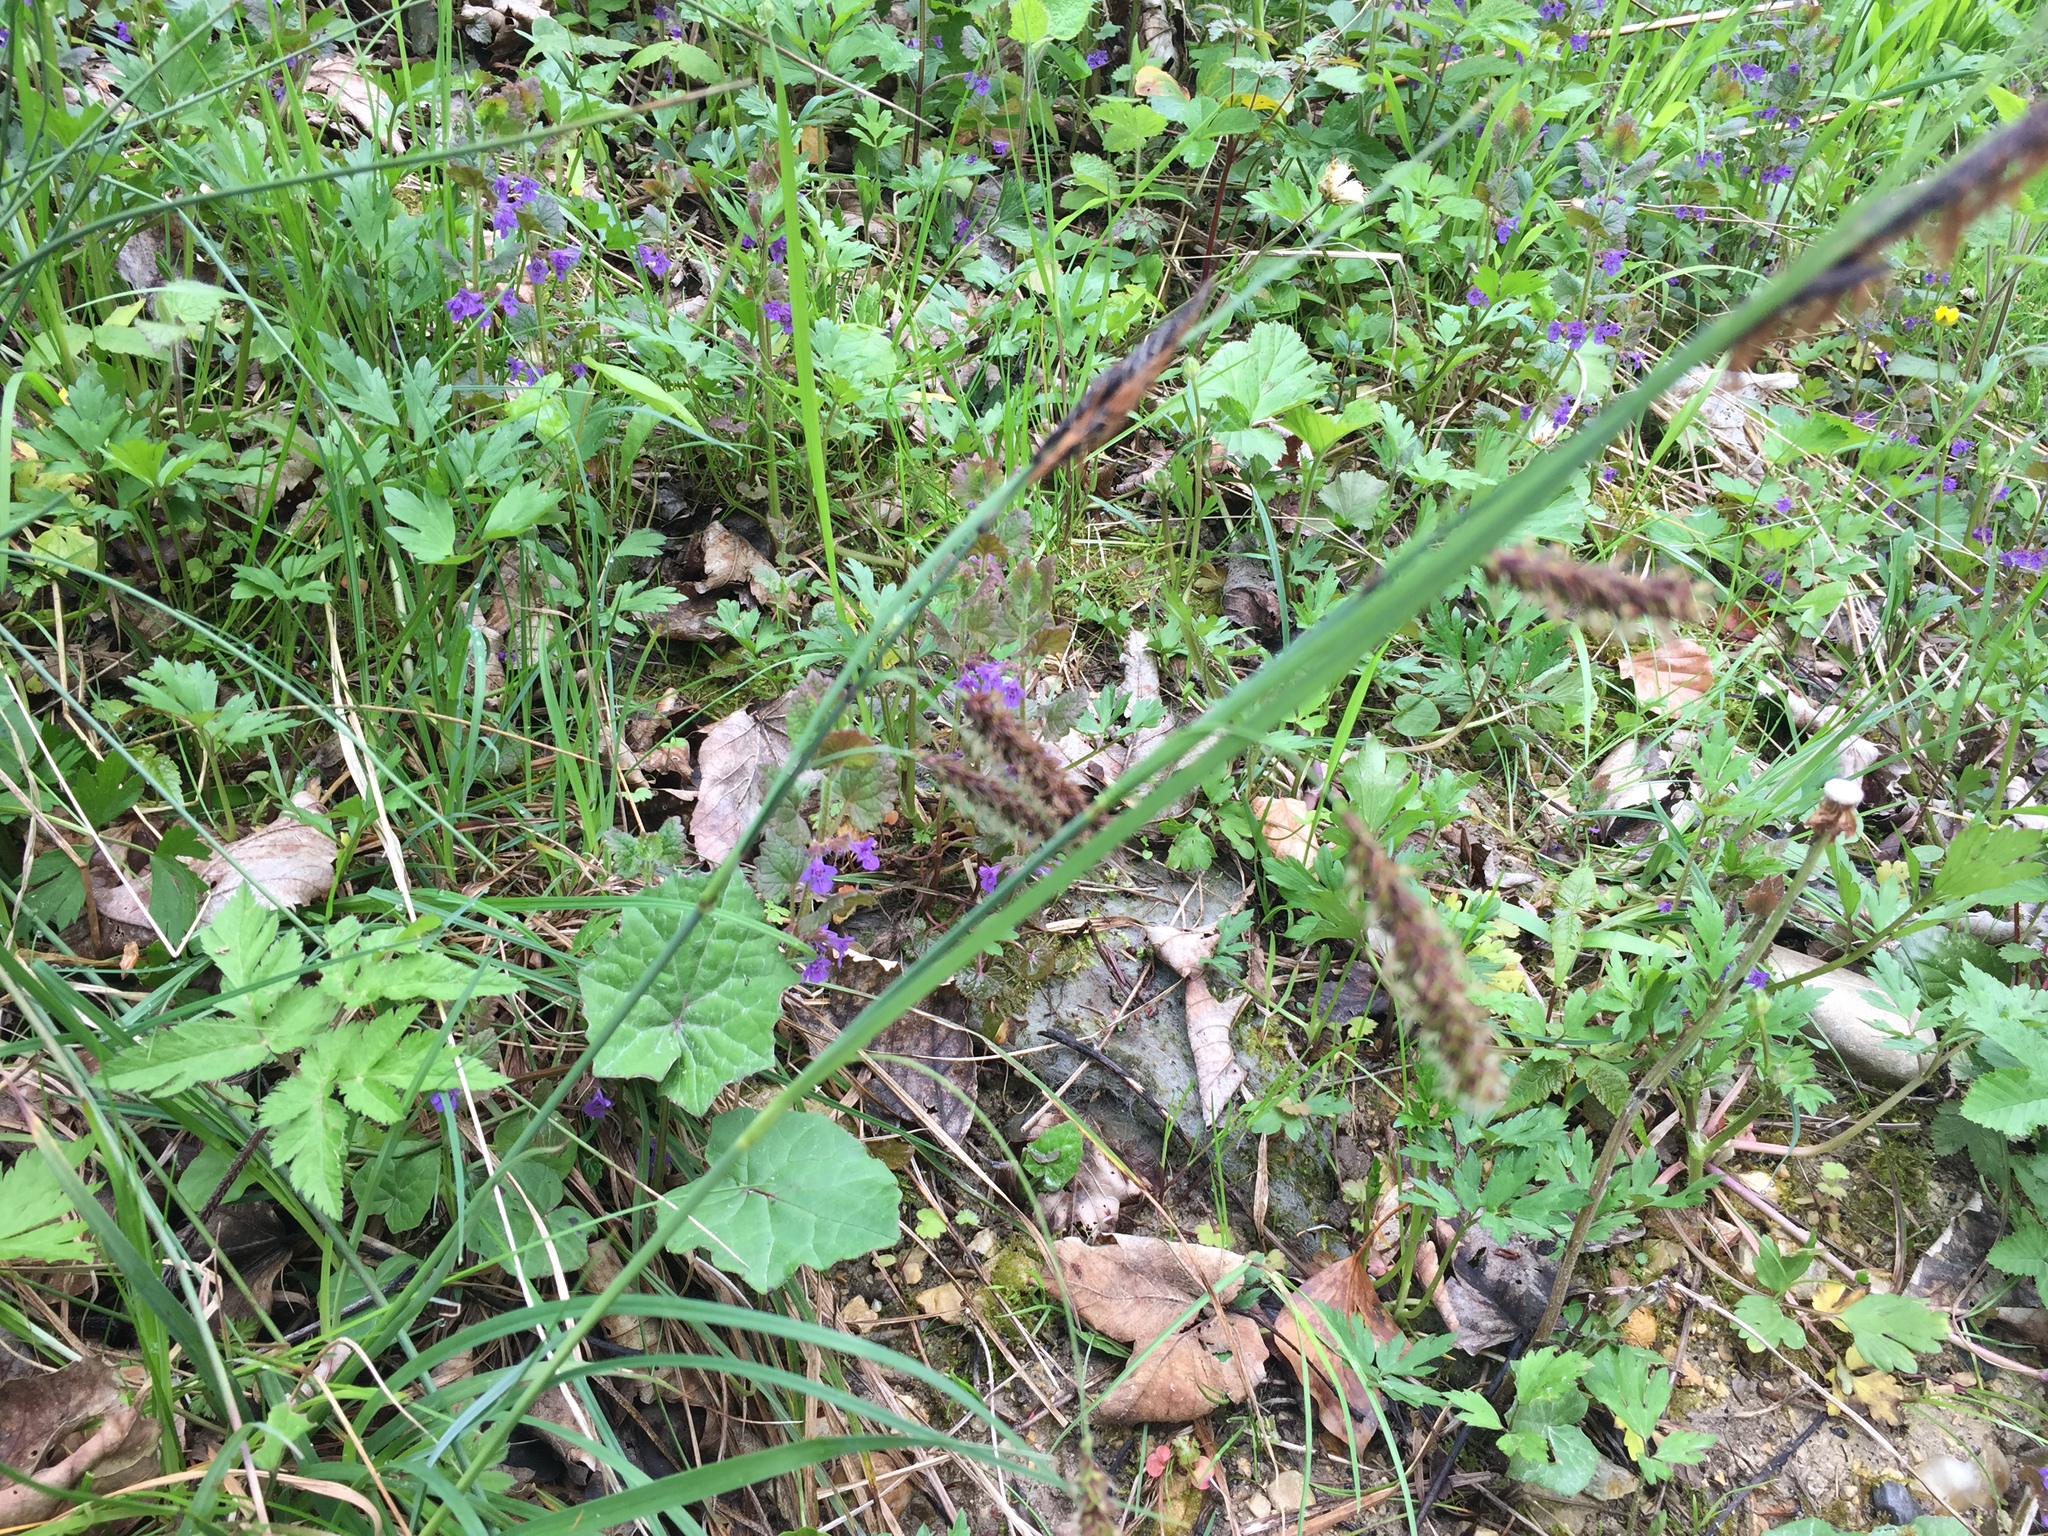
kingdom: Plantae
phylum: Tracheophyta
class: Liliopsida
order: Poales
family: Cyperaceae
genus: Carex
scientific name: Carex flacca
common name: Glaucous sedge
